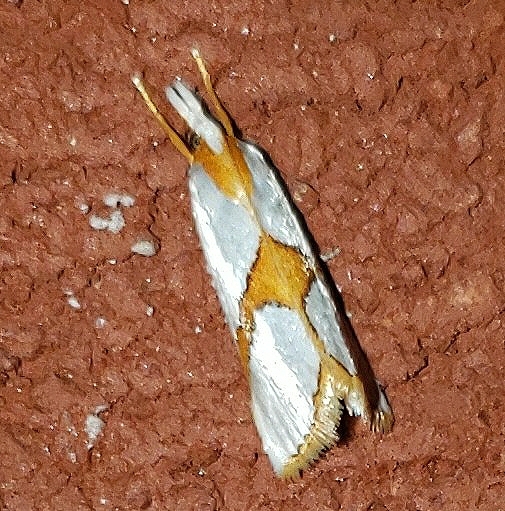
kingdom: Animalia
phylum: Arthropoda
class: Insecta
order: Lepidoptera
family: Crambidae
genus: Argyria
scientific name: Argyria auratella
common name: Curve-lined argyria moth
